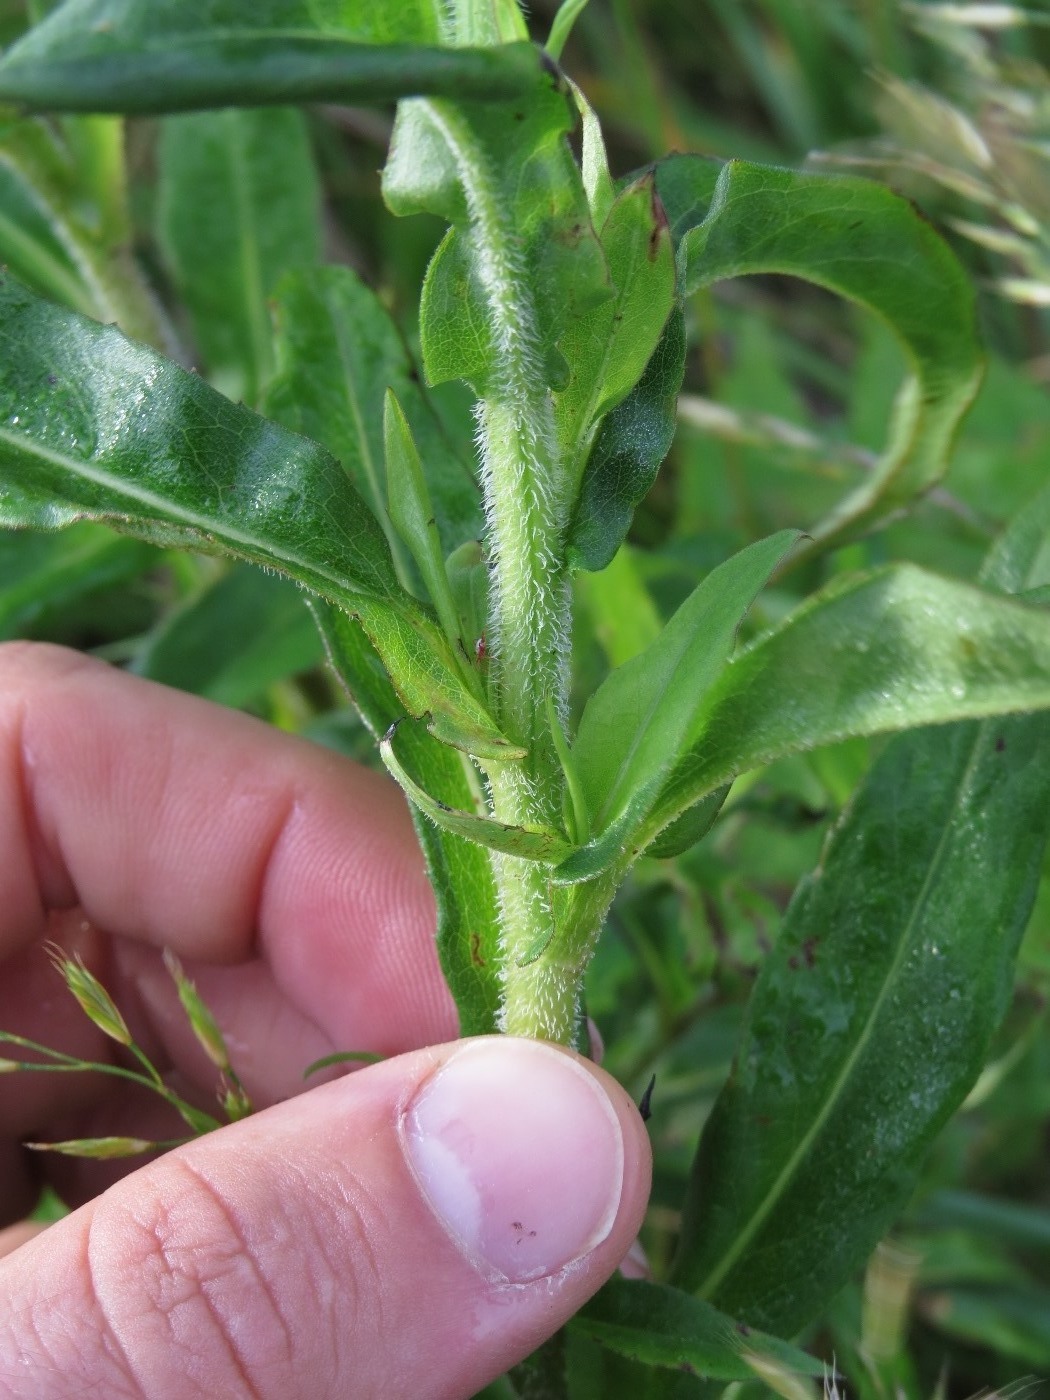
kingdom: Plantae
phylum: Tracheophyta
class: Magnoliopsida
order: Asterales
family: Asteraceae
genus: Symphyotrichum
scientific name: Symphyotrichum puniceum
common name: Bog aster
